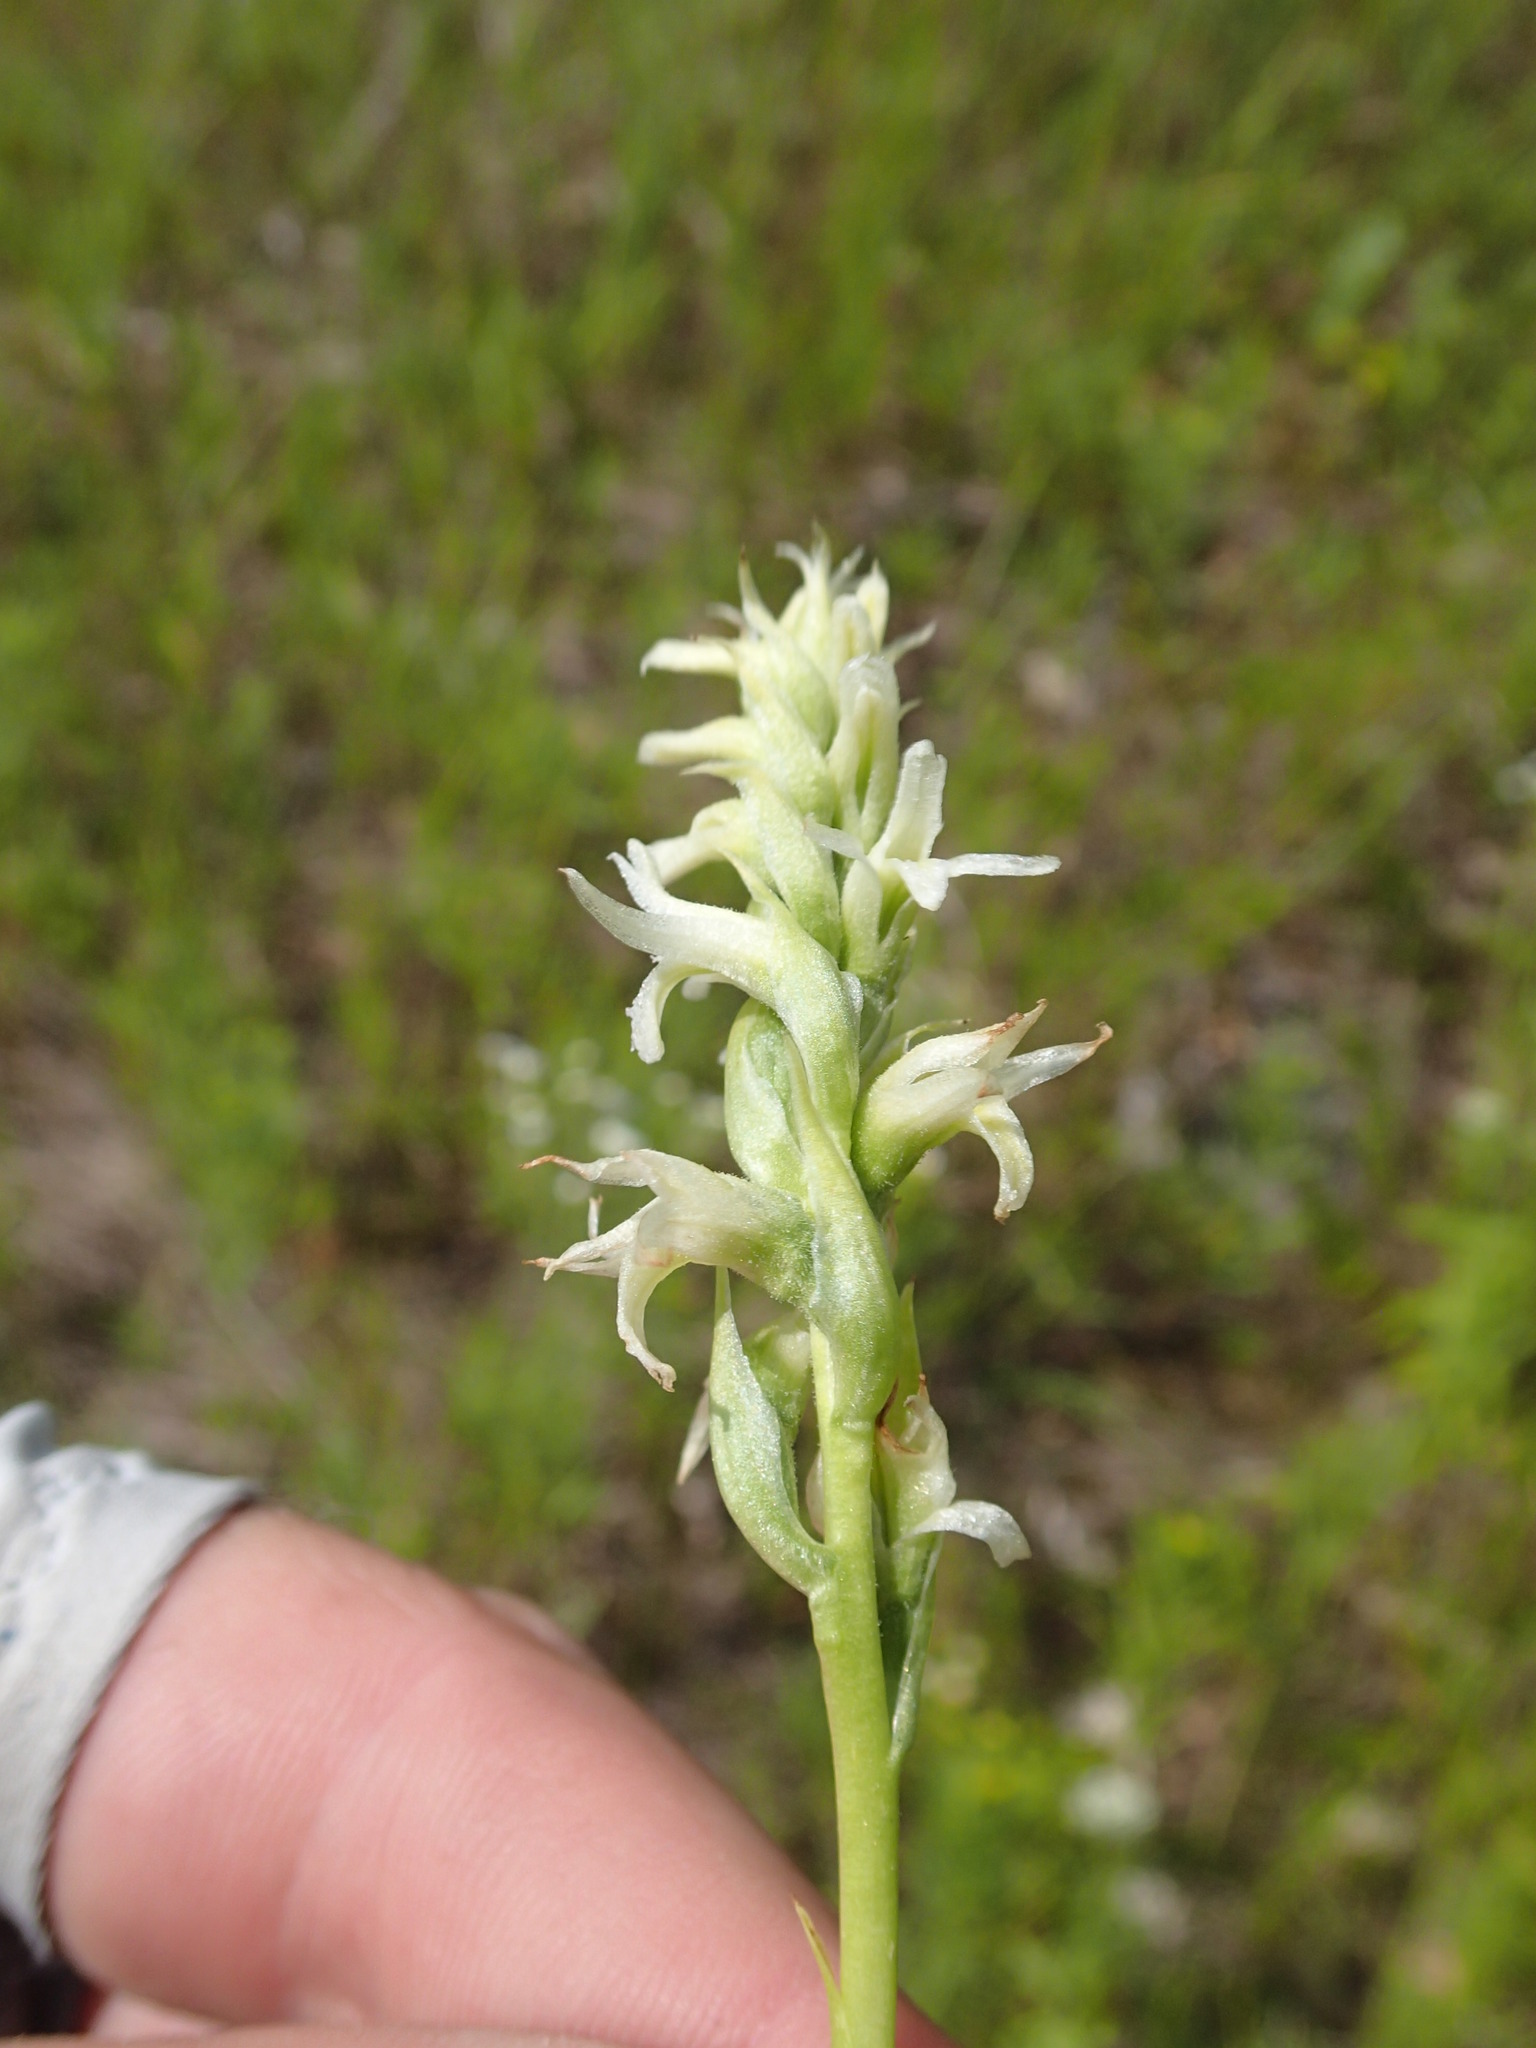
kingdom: Plantae
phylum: Tracheophyta
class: Liliopsida
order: Asparagales
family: Orchidaceae
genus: Spiranthes
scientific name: Spiranthes romanzoffiana
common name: Irish lady's-tresses
